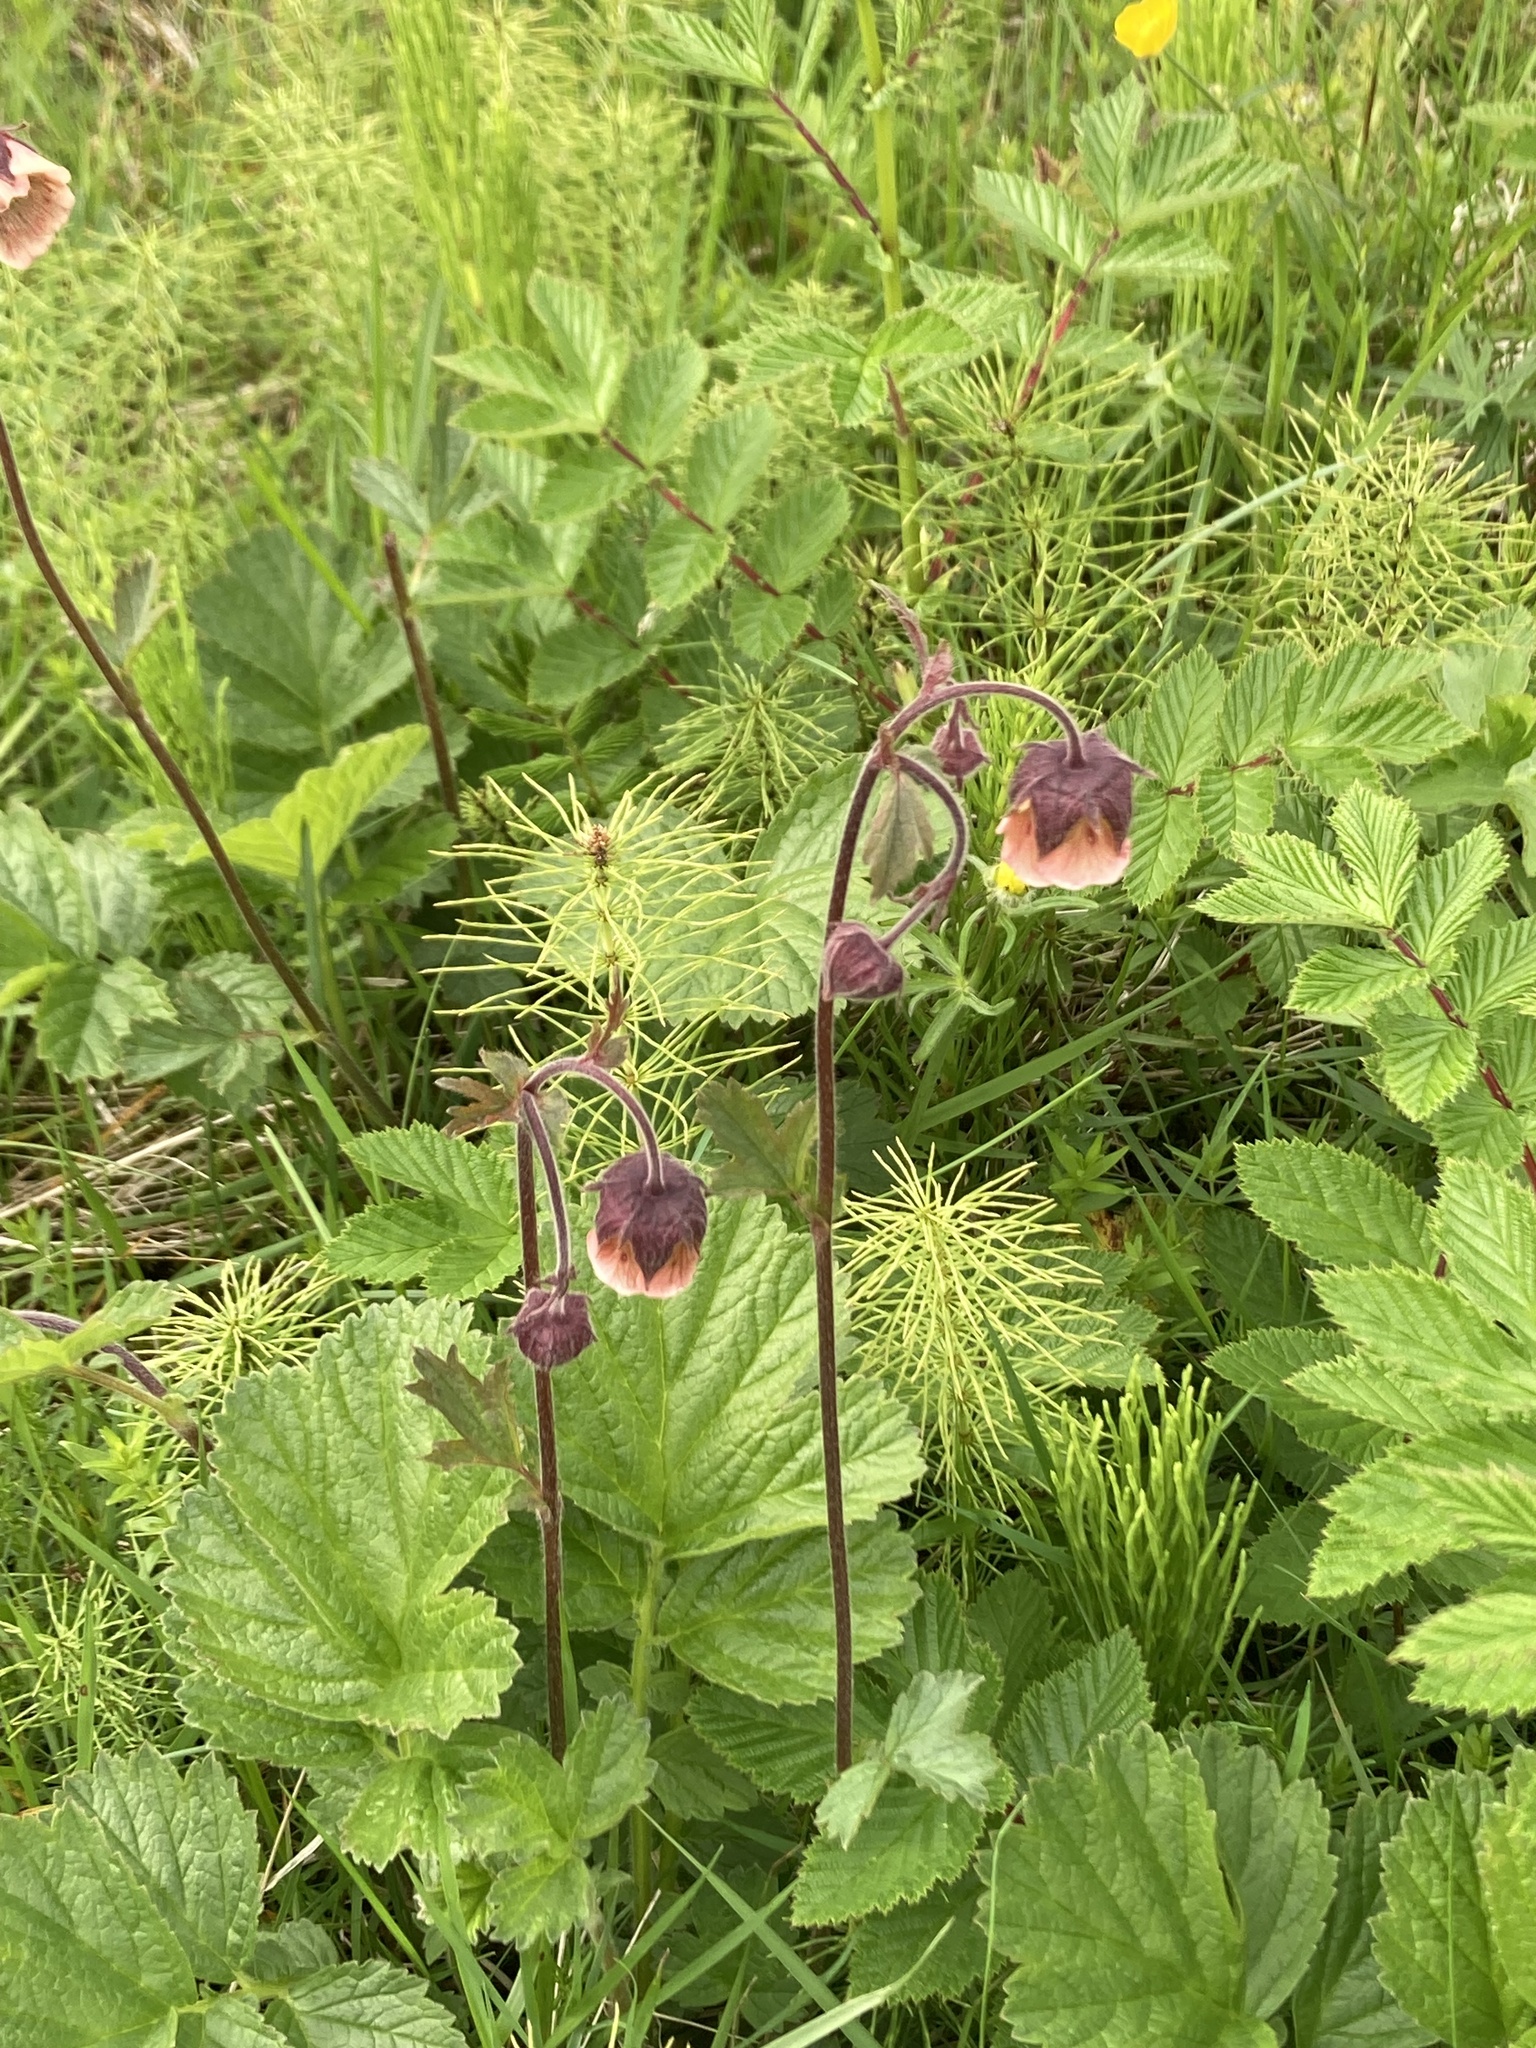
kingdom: Plantae
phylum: Tracheophyta
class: Magnoliopsida
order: Rosales
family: Rosaceae
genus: Geum
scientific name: Geum rivale
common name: Water avens
